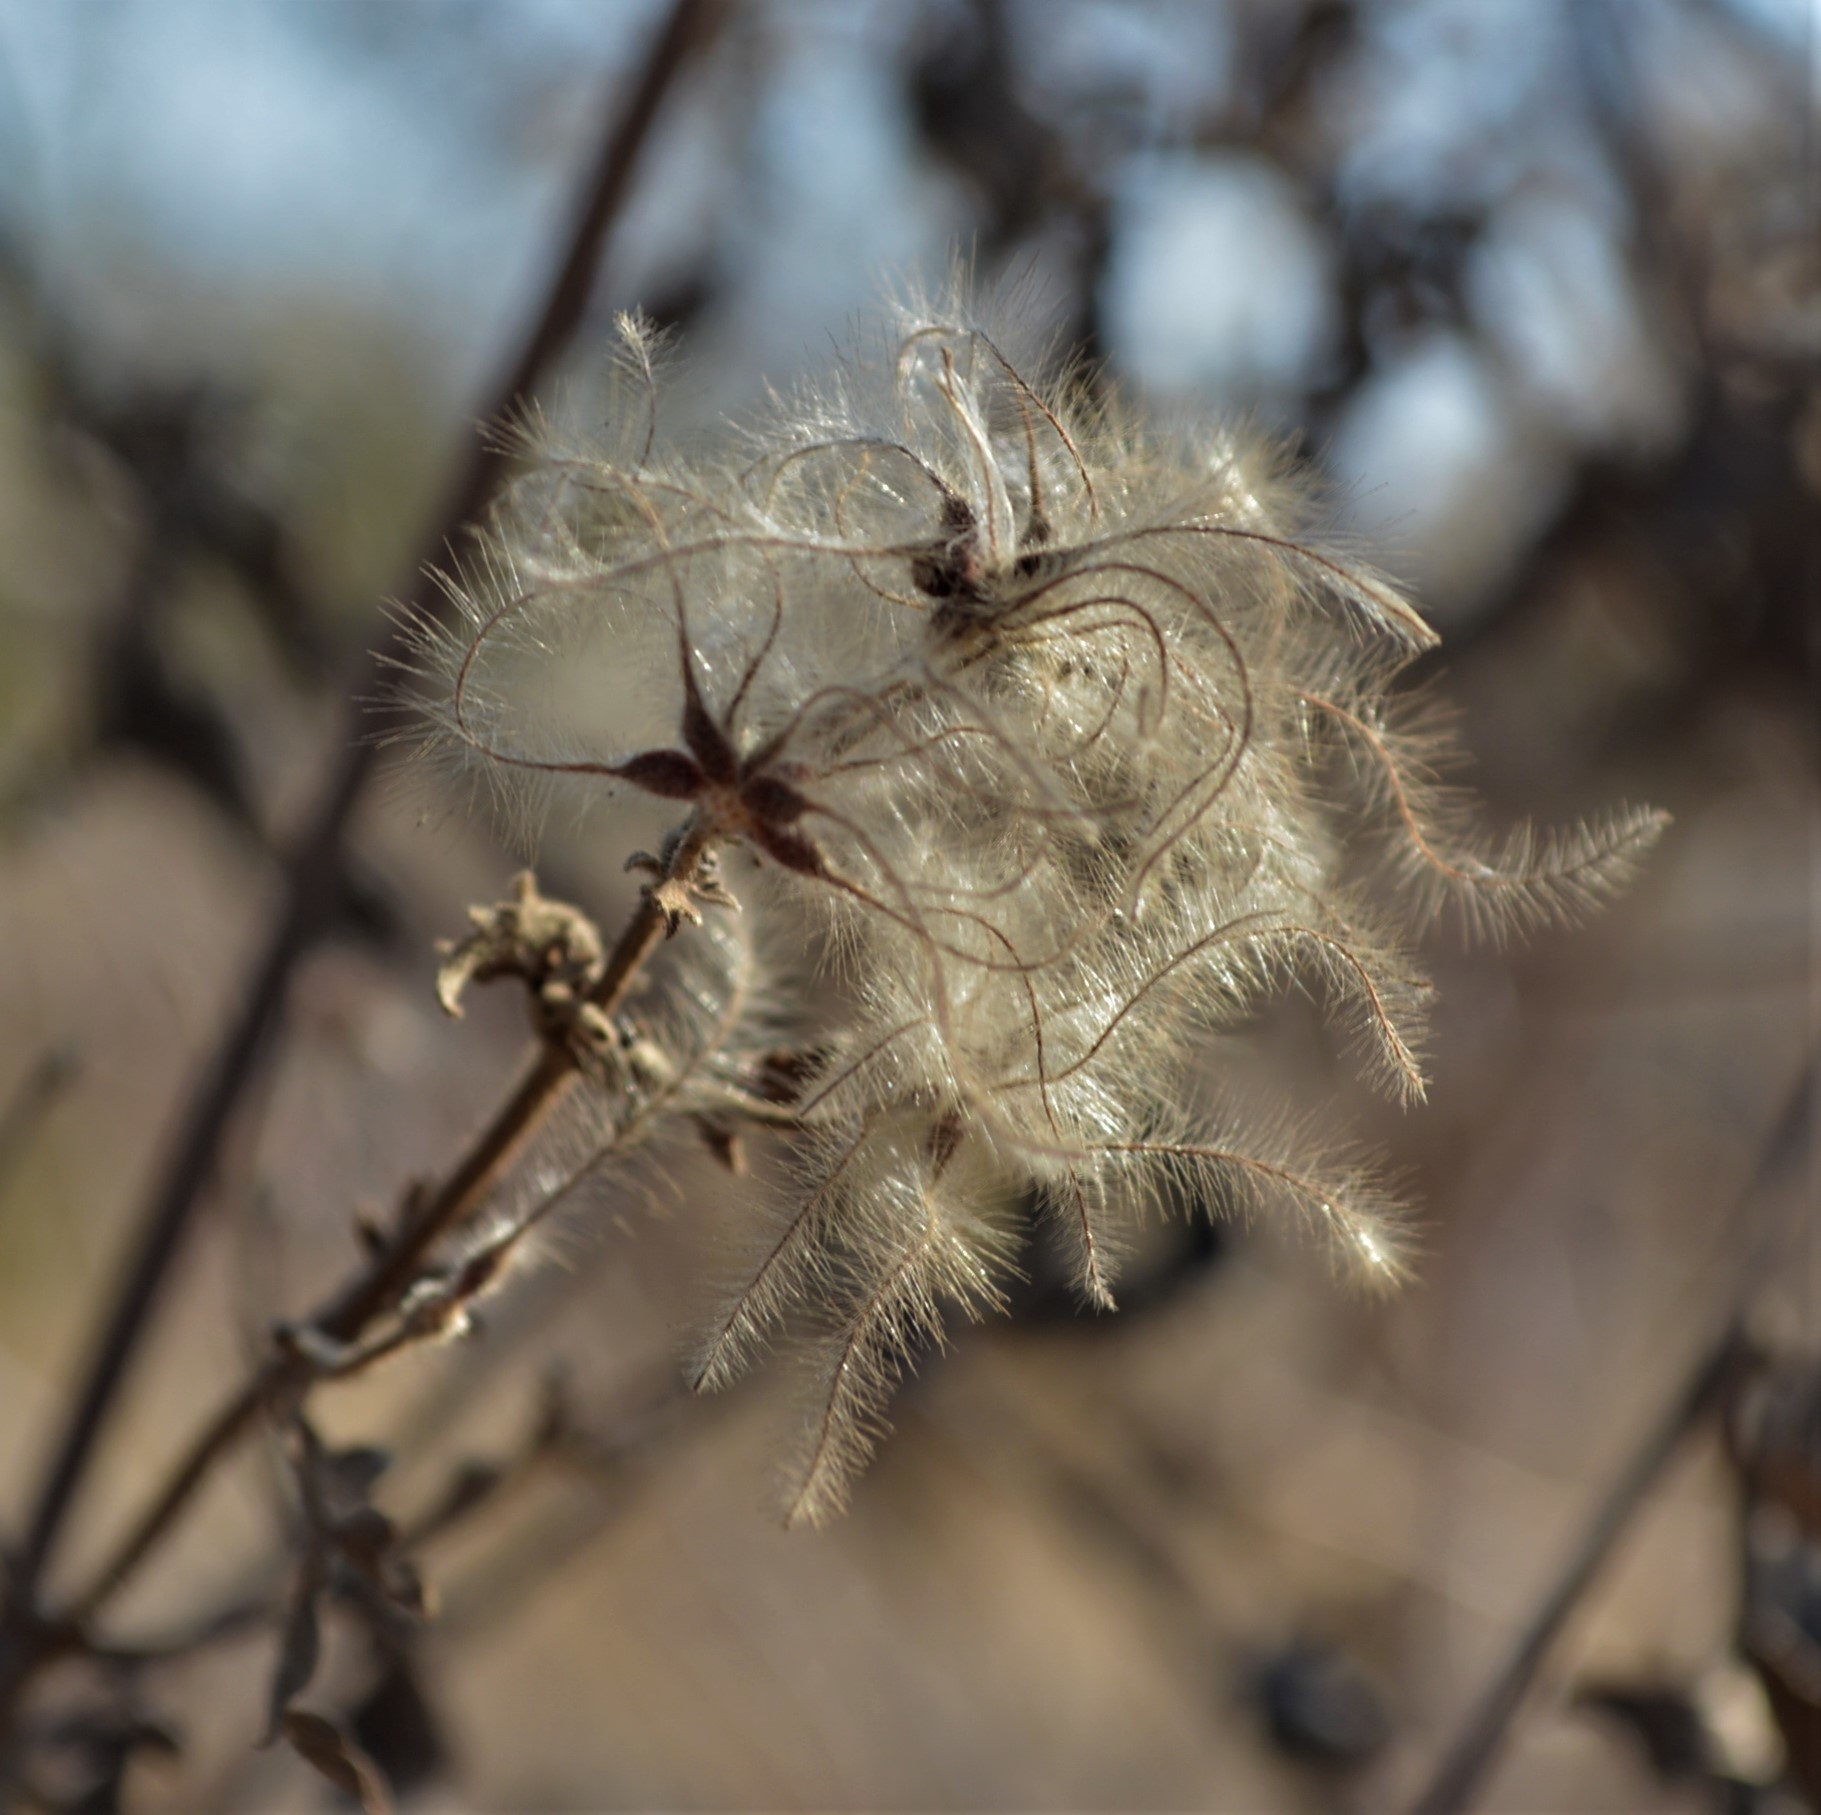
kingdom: Plantae
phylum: Tracheophyta
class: Magnoliopsida
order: Ranunculales
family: Ranunculaceae
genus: Clematis
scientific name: Clematis brachiata
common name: Traveler's-joy
